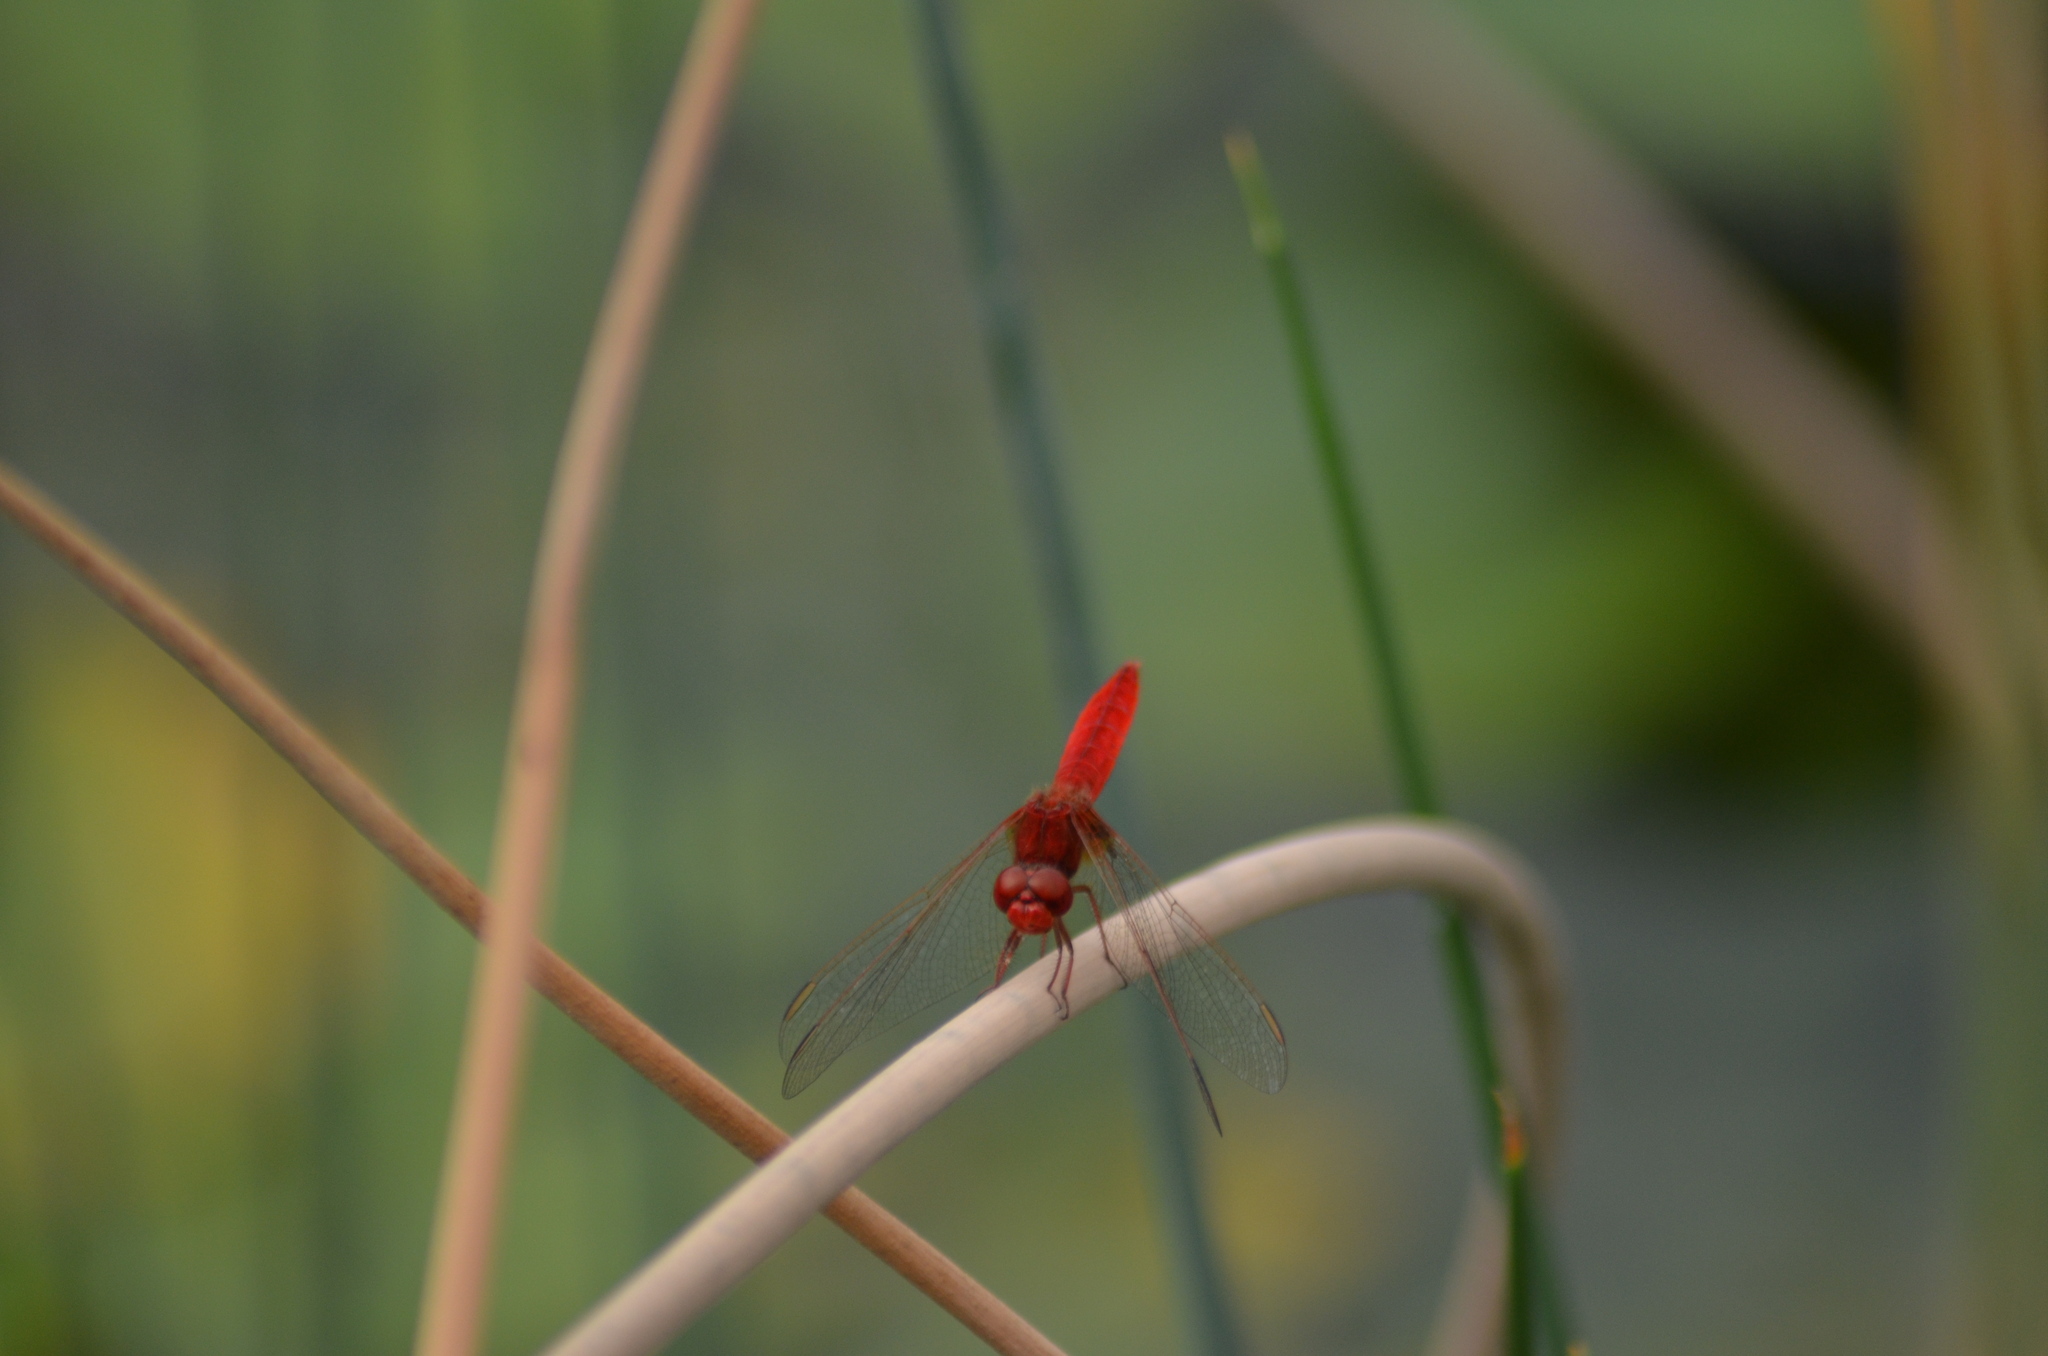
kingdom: Animalia
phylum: Arthropoda
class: Insecta
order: Odonata
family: Libellulidae
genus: Crocothemis
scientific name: Crocothemis erythraea
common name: Scarlet dragonfly
